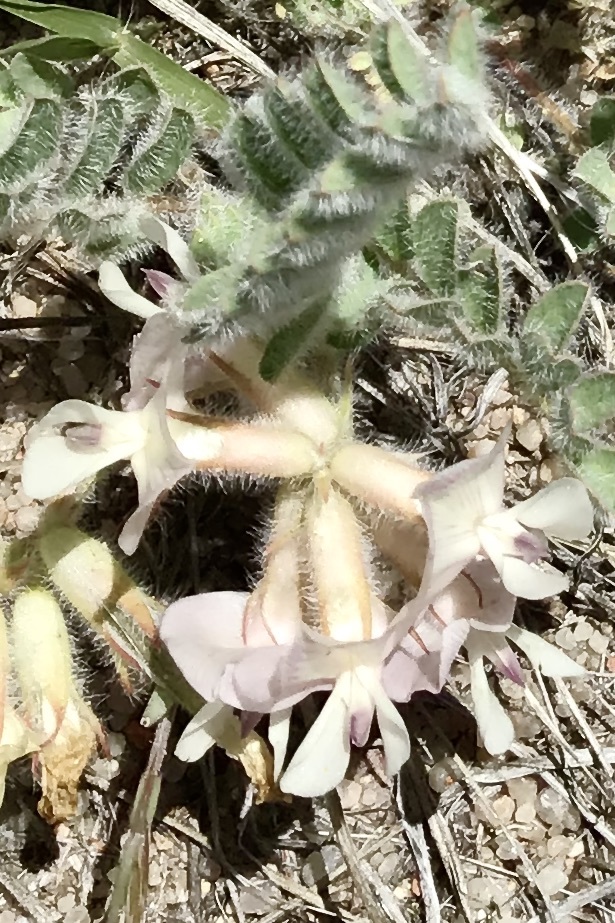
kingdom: Plantae
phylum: Tracheophyta
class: Magnoliopsida
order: Fabales
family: Fabaceae
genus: Astragalus
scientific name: Astragalus parryi
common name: Parry milk-vetch
